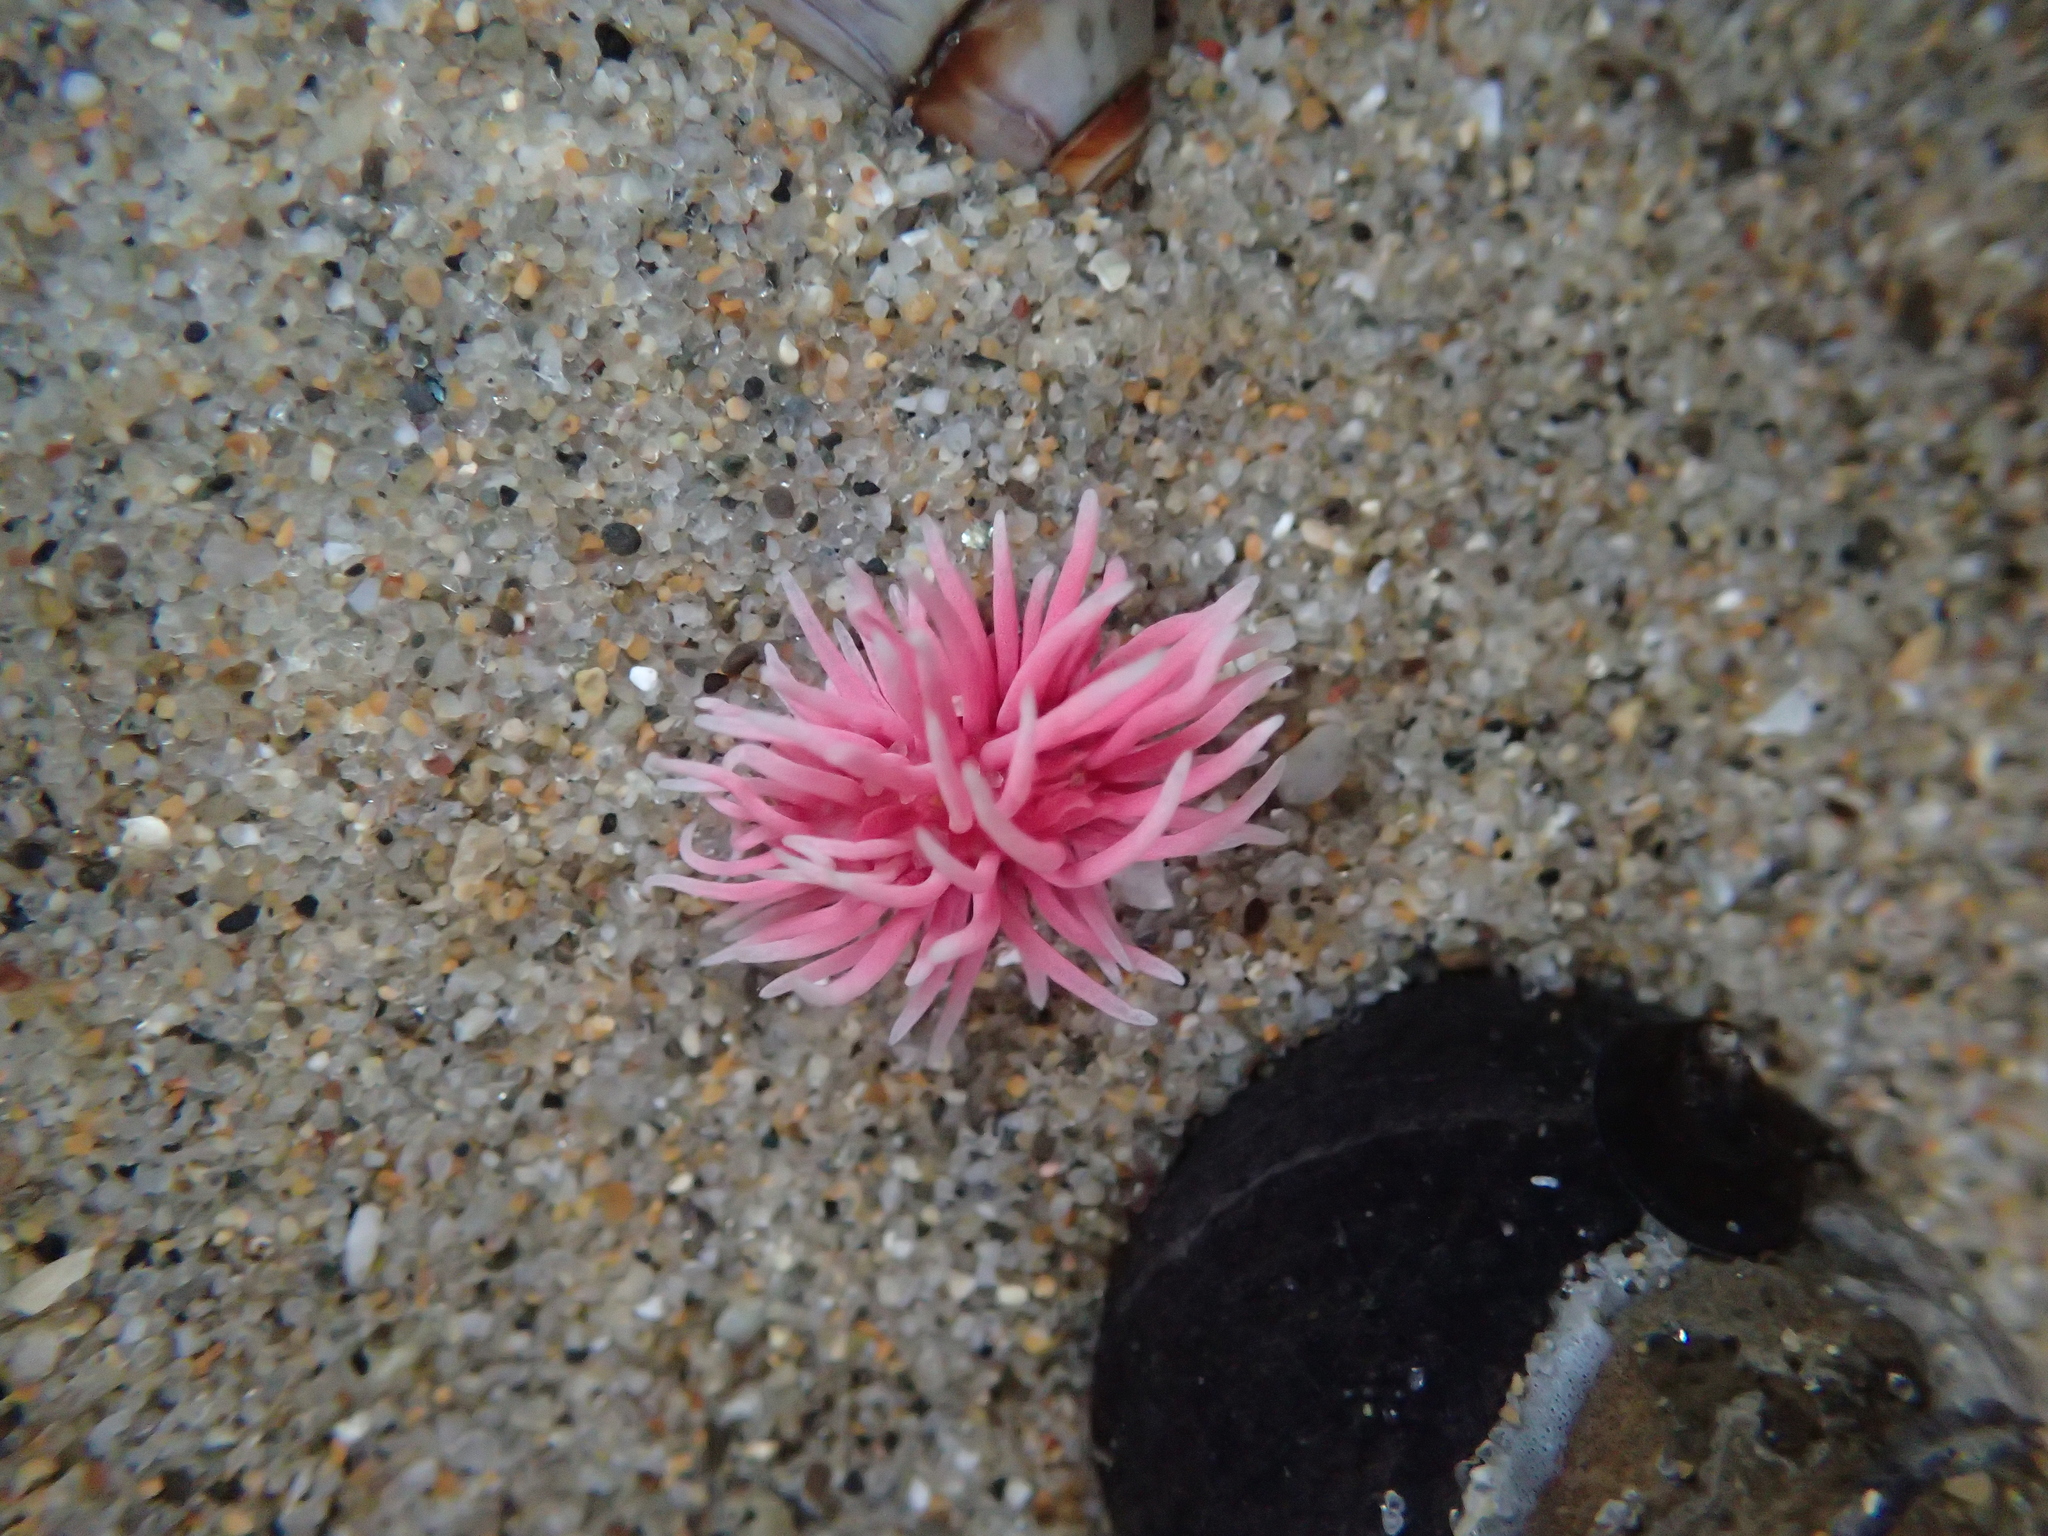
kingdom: Animalia
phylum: Mollusca
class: Gastropoda
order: Nudibranchia
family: Goniodorididae
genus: Okenia
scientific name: Okenia
